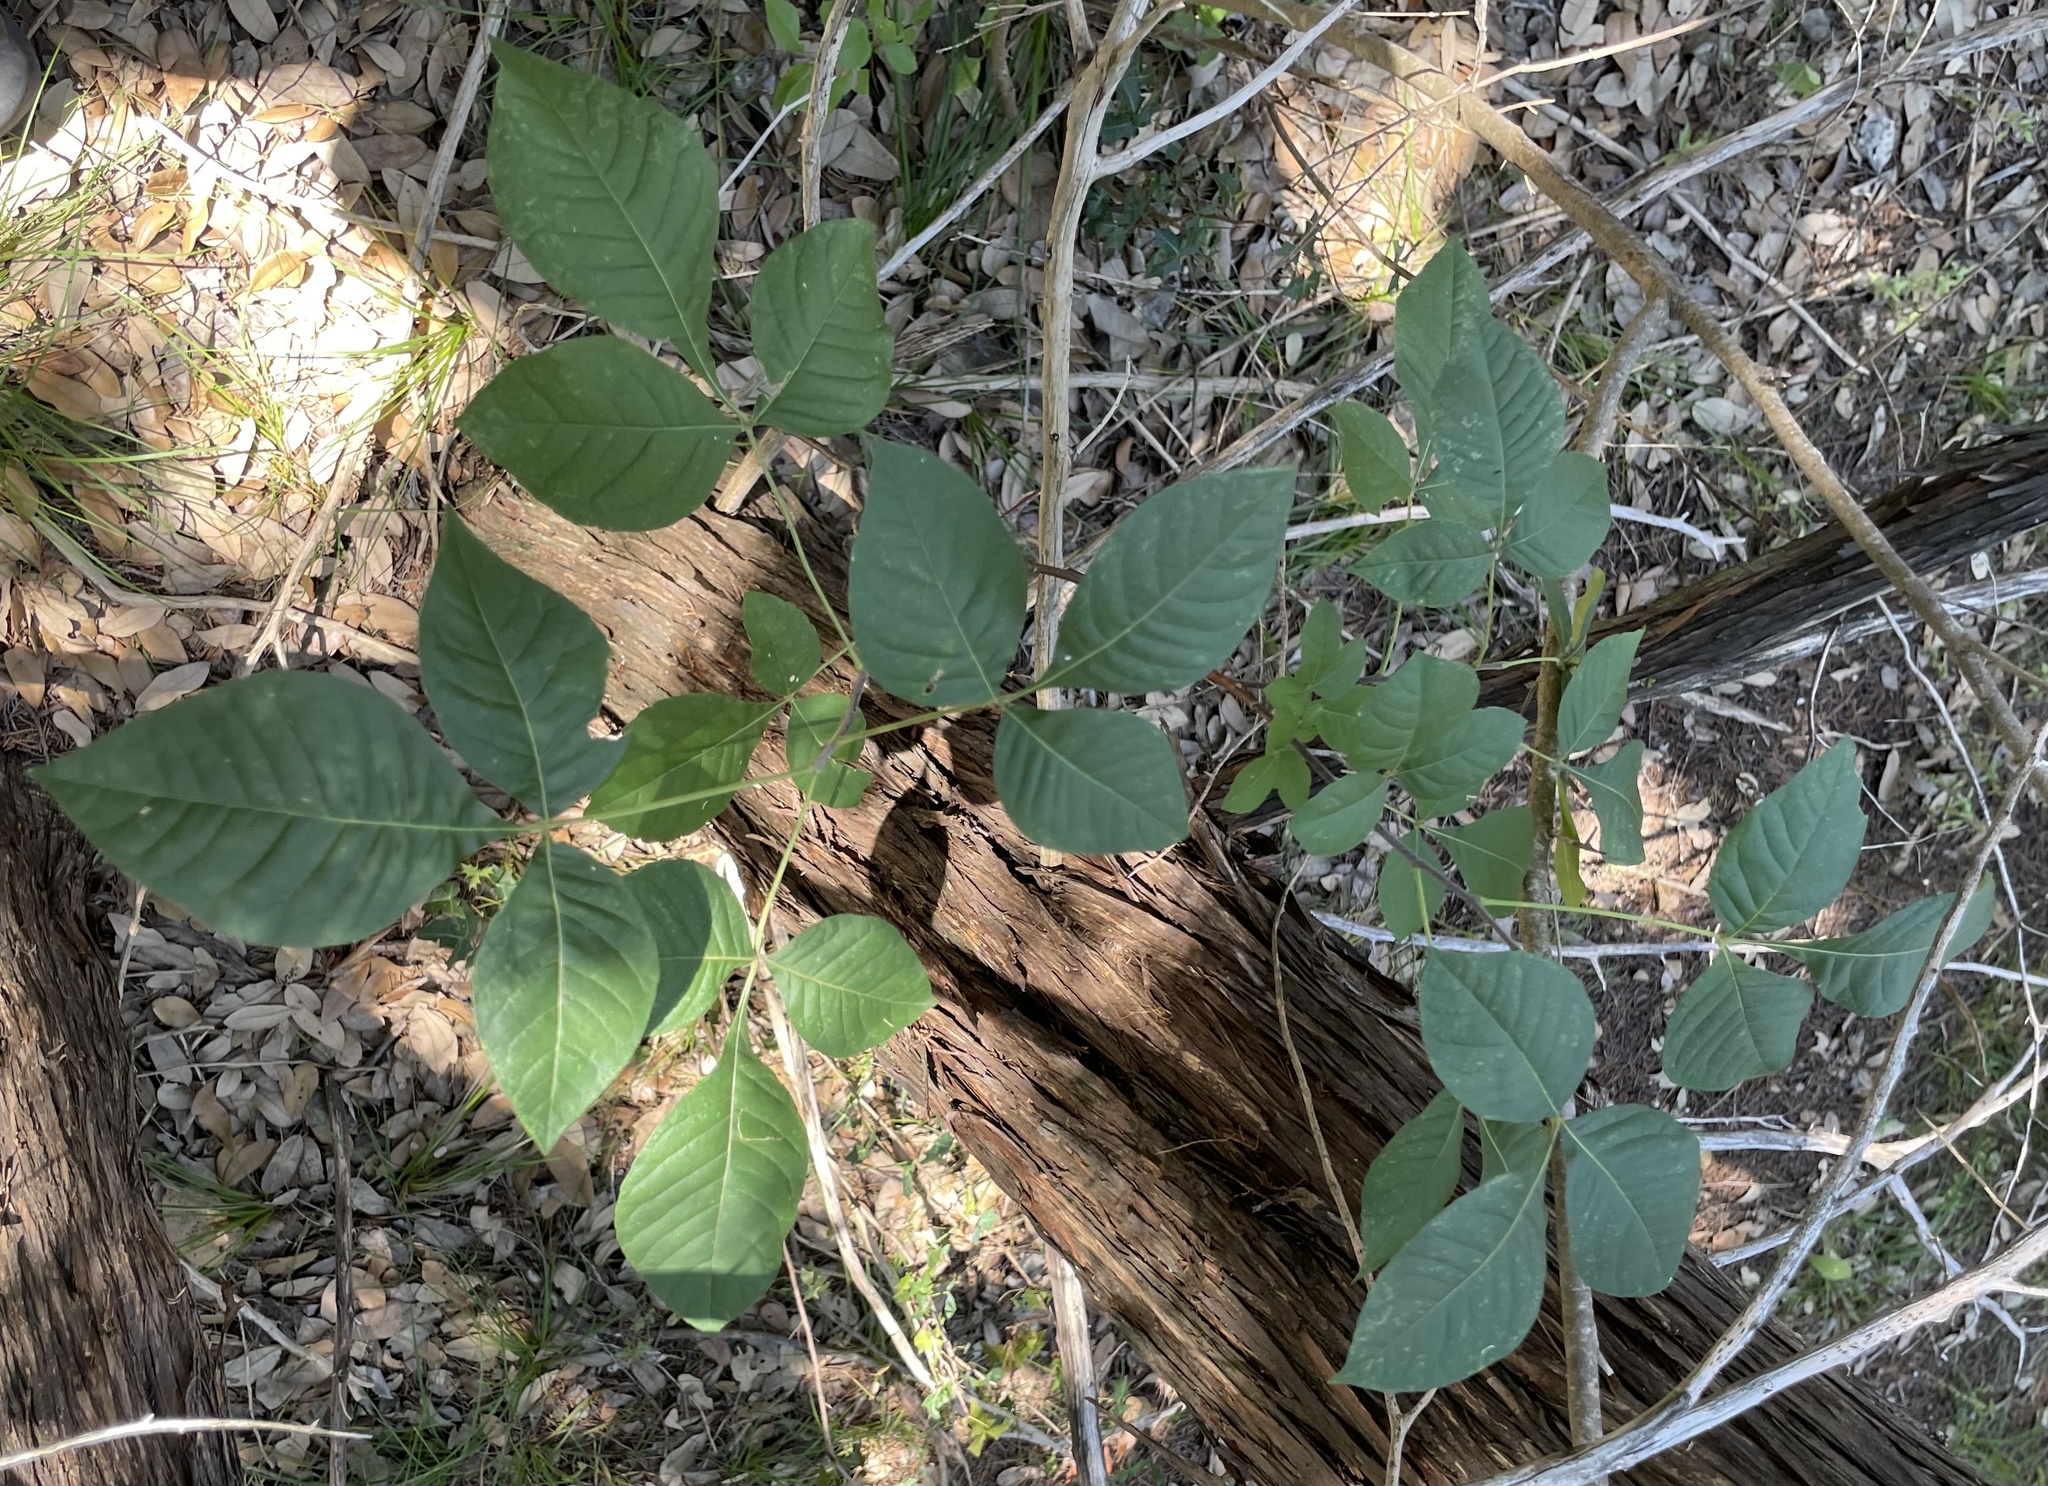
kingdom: Plantae
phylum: Tracheophyta
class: Magnoliopsida
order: Sapindales
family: Rutaceae
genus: Ptelea
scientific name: Ptelea trifoliata
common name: Common hop-tree
